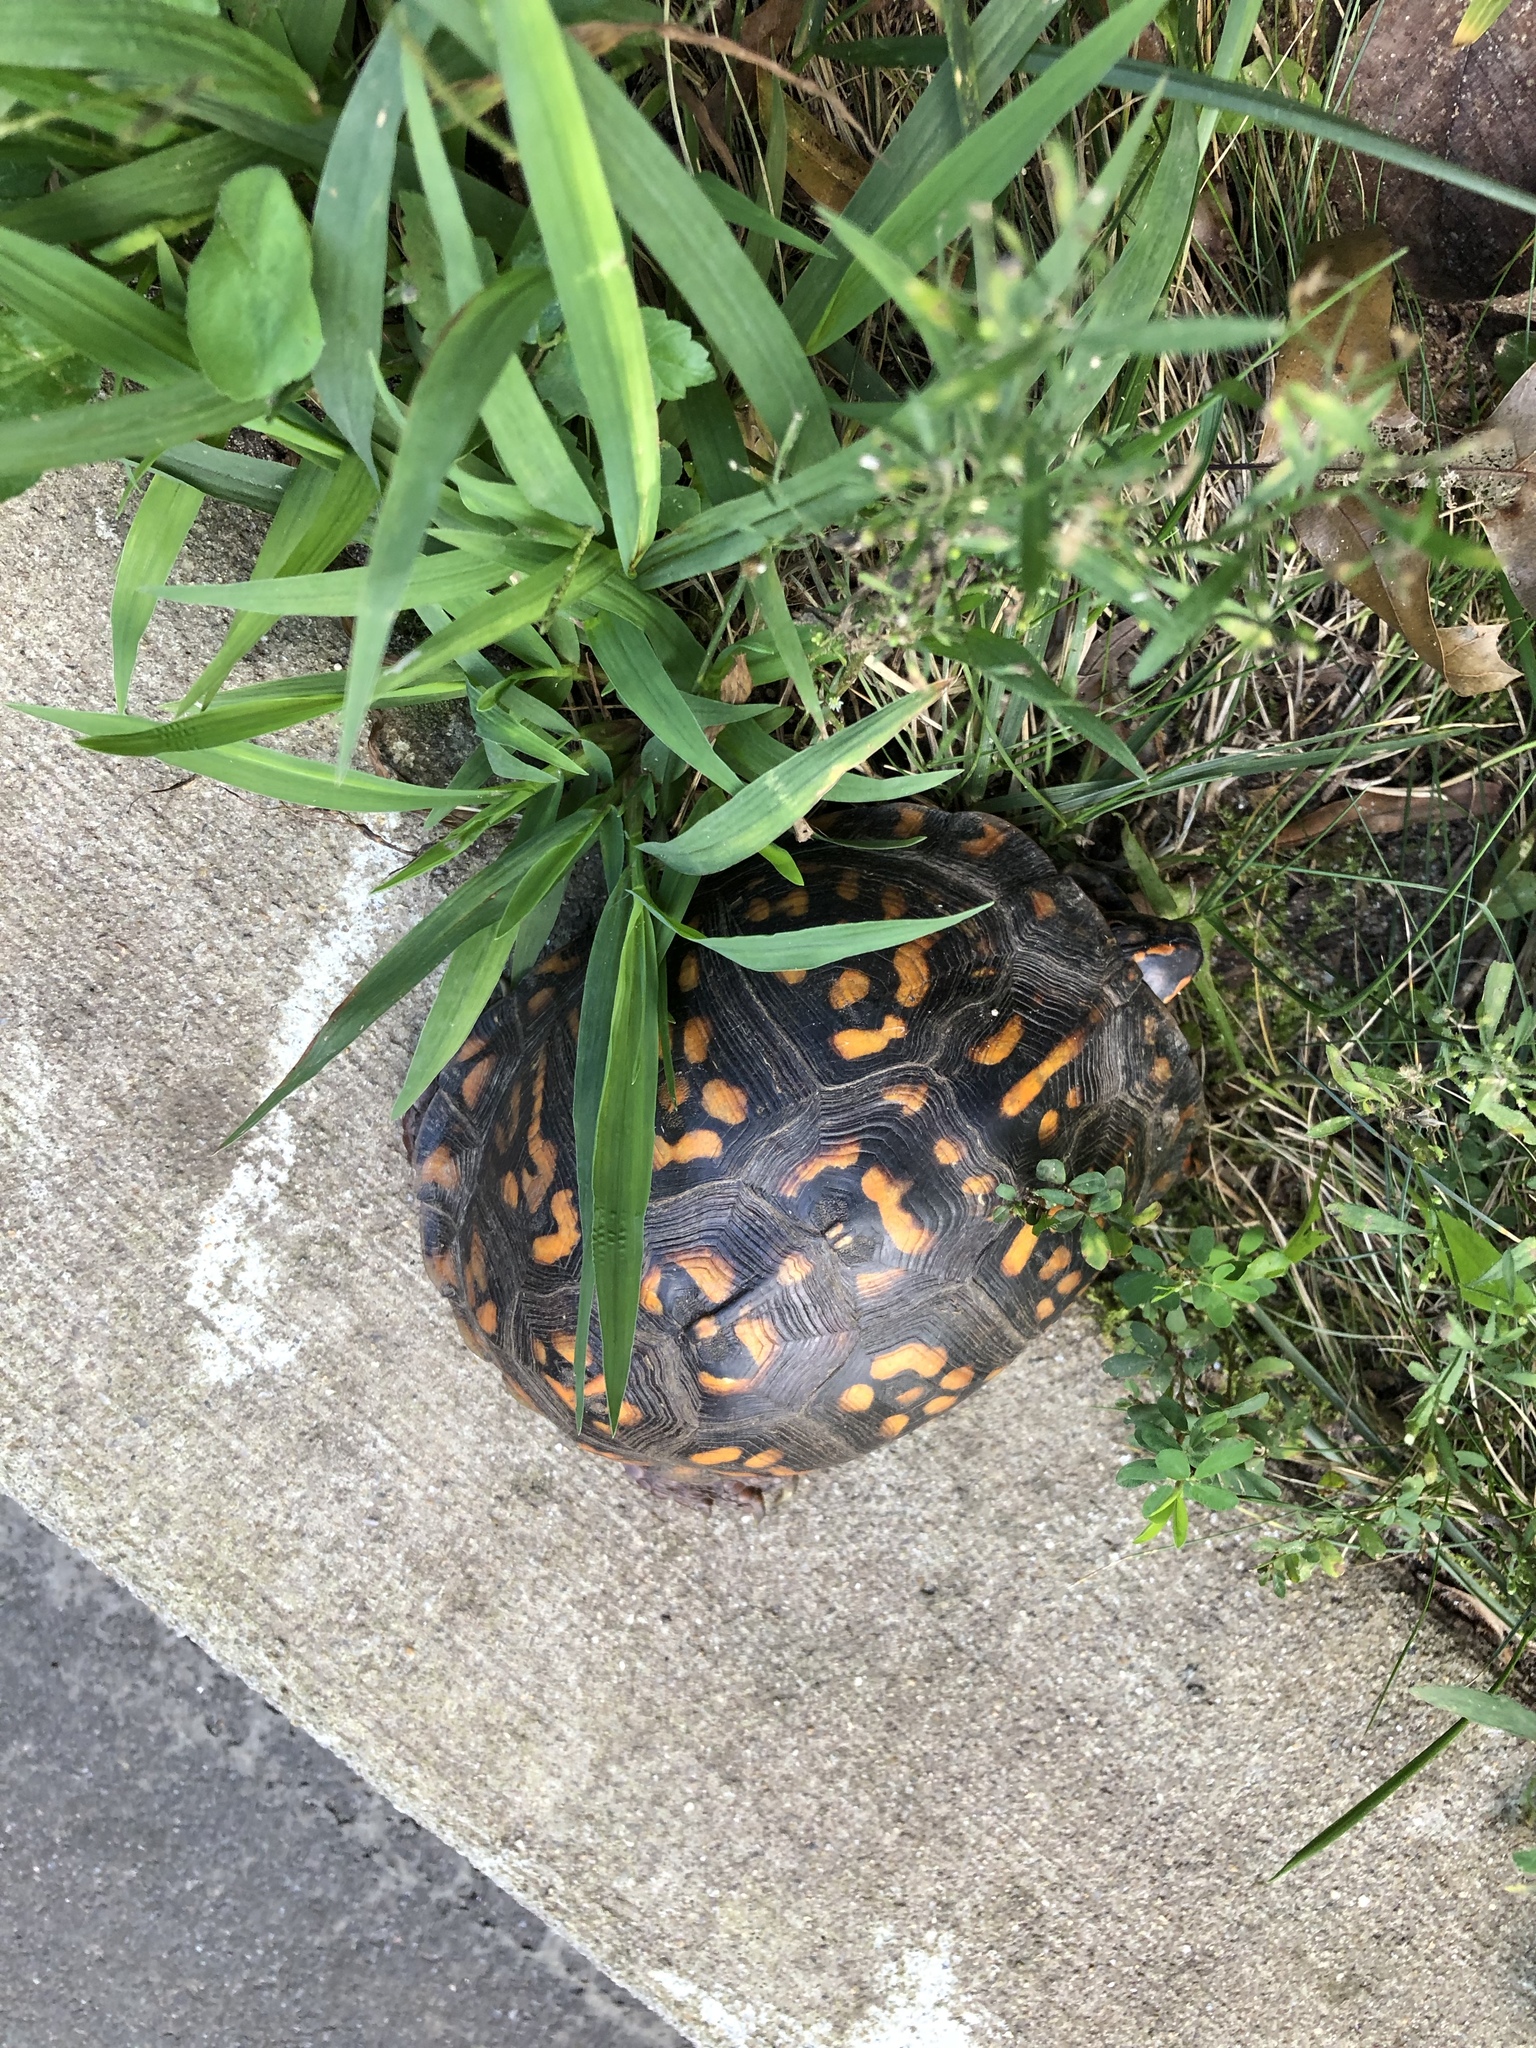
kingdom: Animalia
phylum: Chordata
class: Testudines
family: Emydidae
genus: Terrapene
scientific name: Terrapene carolina
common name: Common box turtle
